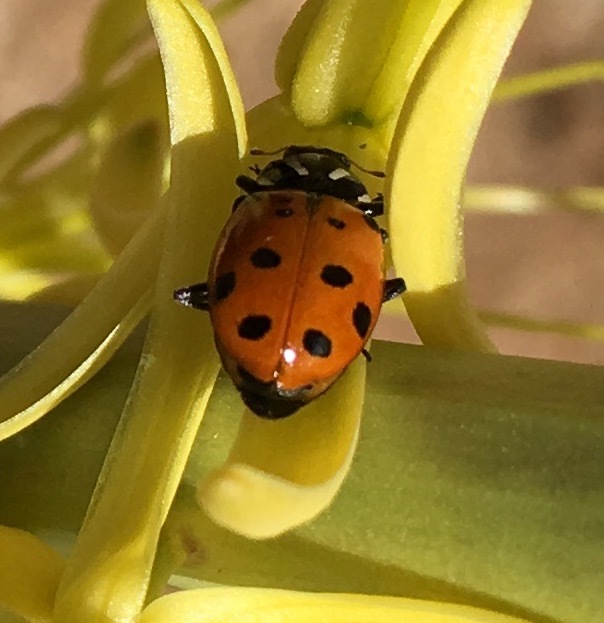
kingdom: Animalia
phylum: Arthropoda
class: Insecta
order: Coleoptera
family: Coccinellidae
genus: Hippodamia
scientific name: Hippodamia convergens
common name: Convergent lady beetle
